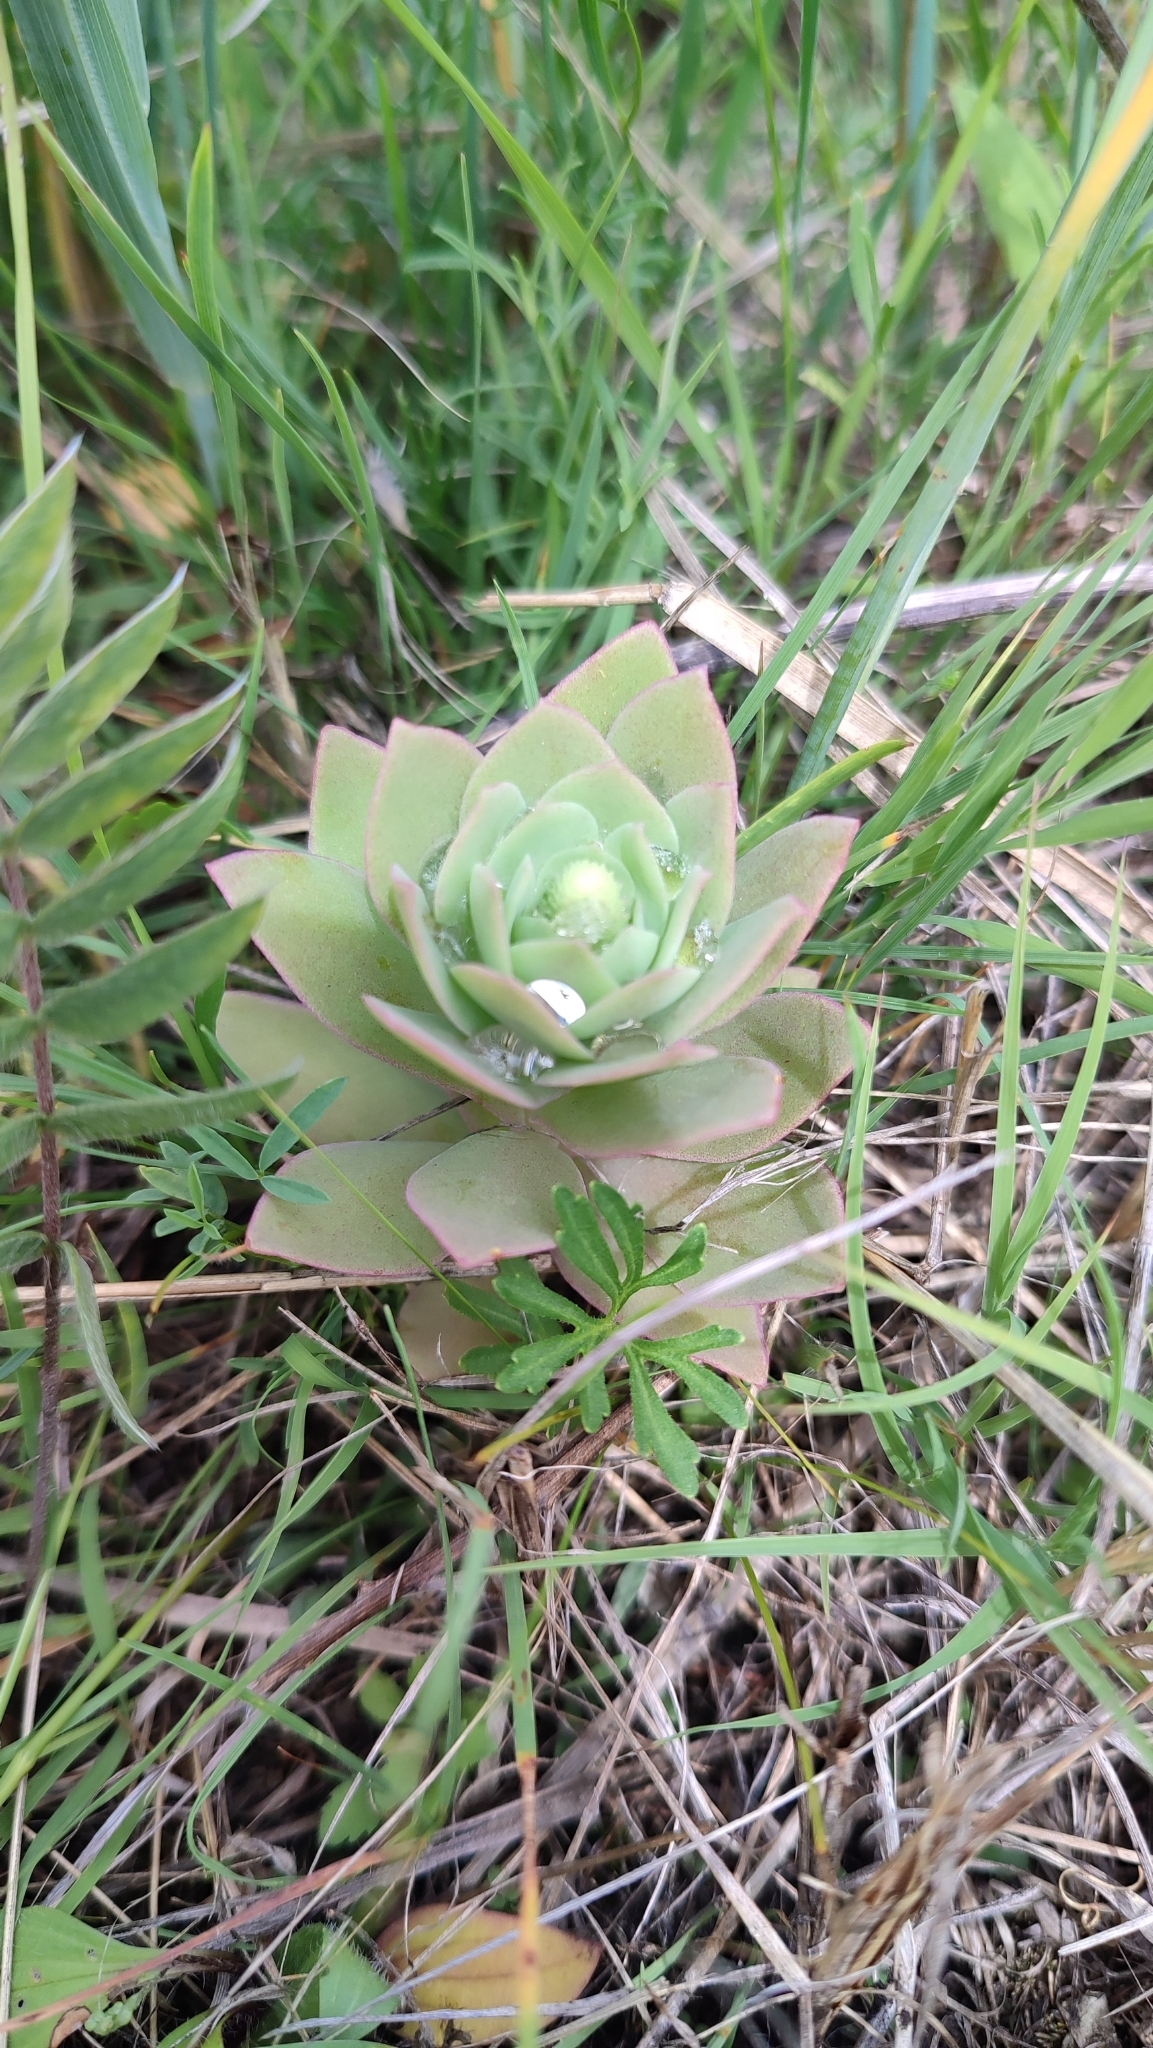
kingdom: Plantae
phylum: Tracheophyta
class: Magnoliopsida
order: Saxifragales
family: Crassulaceae
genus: Orostachys
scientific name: Orostachys malacophylla
